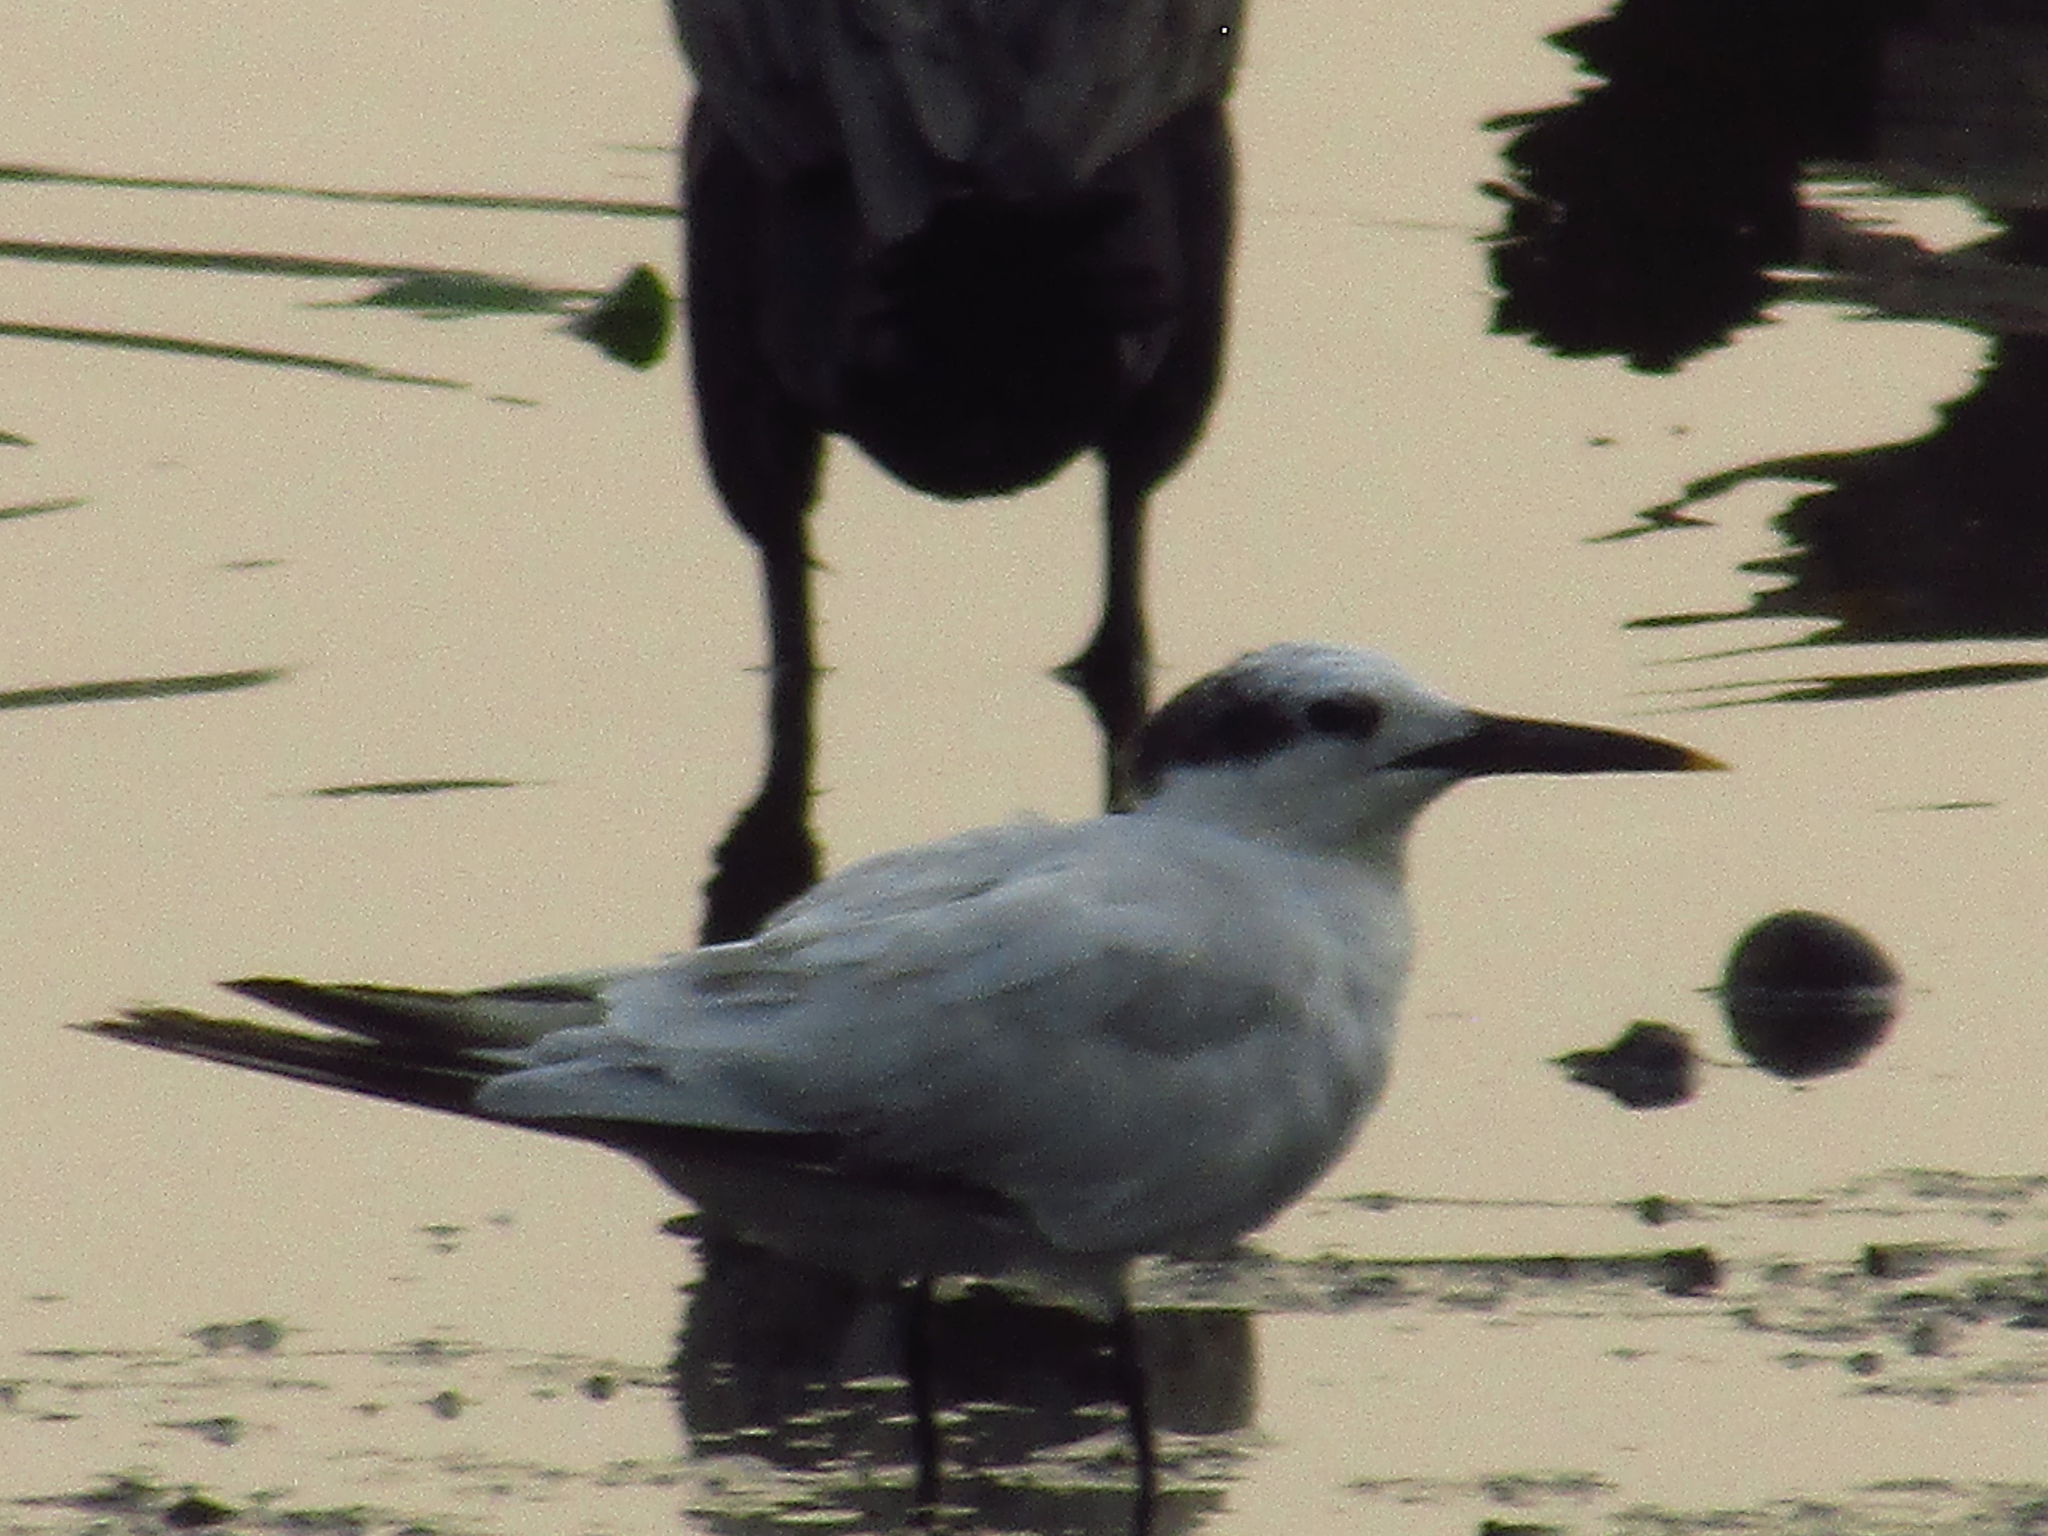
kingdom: Animalia
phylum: Chordata
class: Aves
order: Charadriiformes
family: Laridae
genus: Thalasseus
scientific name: Thalasseus sandvicensis
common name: Sandwich tern
